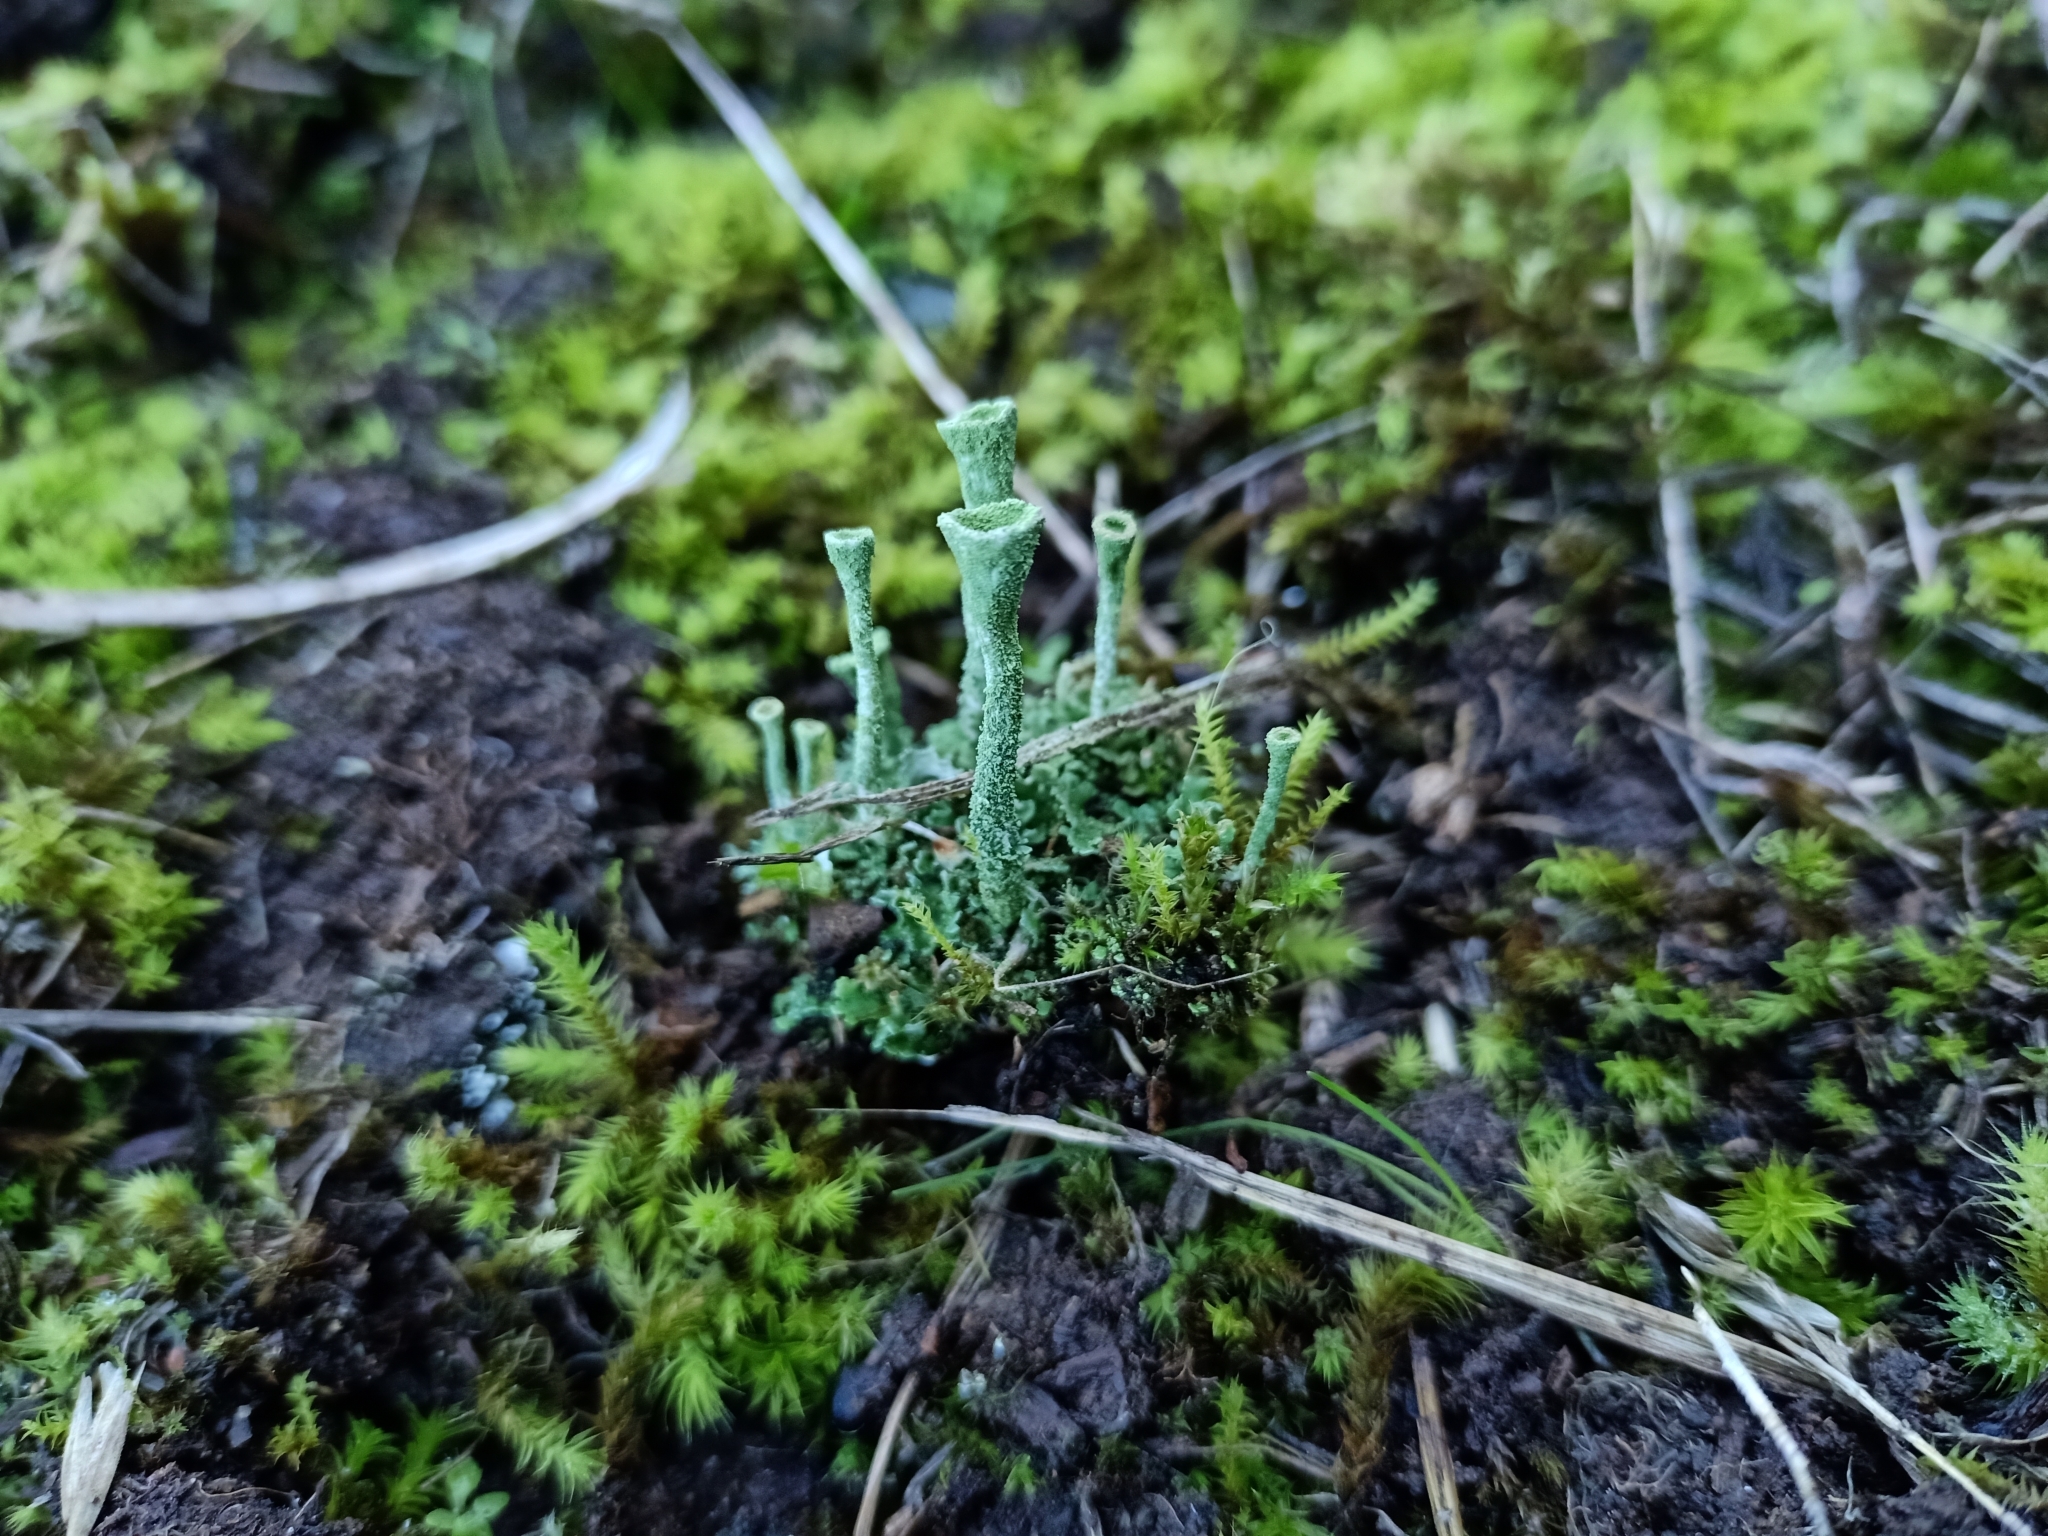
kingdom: Fungi
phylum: Ascomycota
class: Lecanoromycetes
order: Lecanorales
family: Cladoniaceae
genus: Cladonia
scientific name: Cladonia fimbriata
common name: Powdered trumpet lichen
